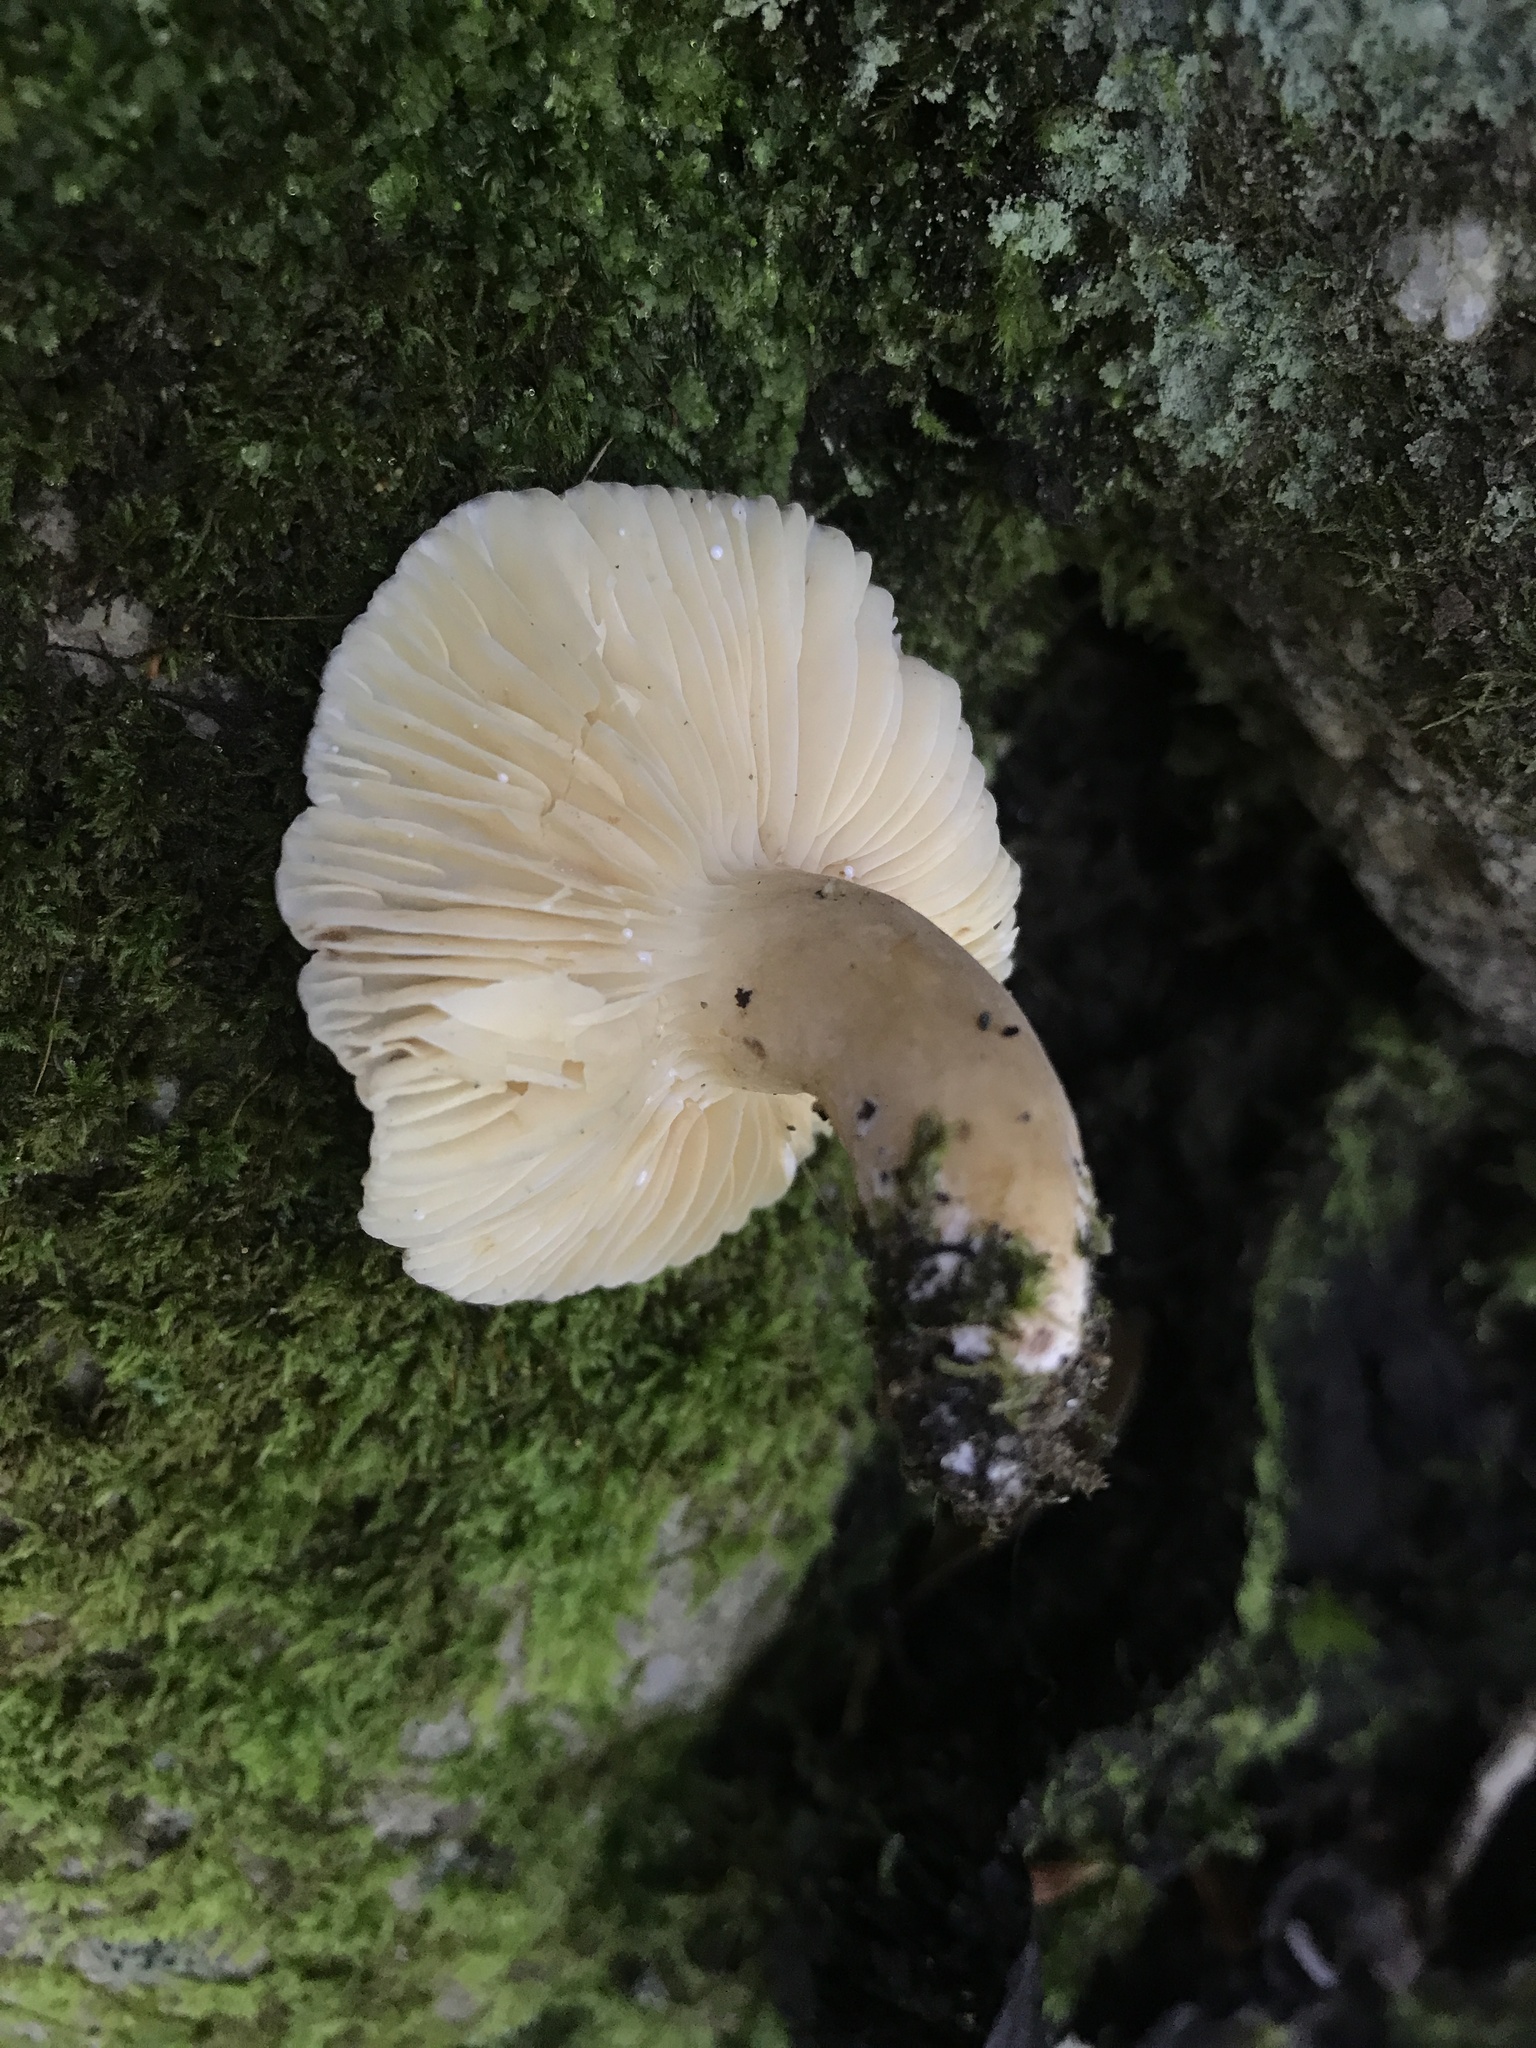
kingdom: Fungi
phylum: Basidiomycota
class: Agaricomycetes
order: Russulales
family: Russulaceae
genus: Lactarius
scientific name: Lactarius gerardii
